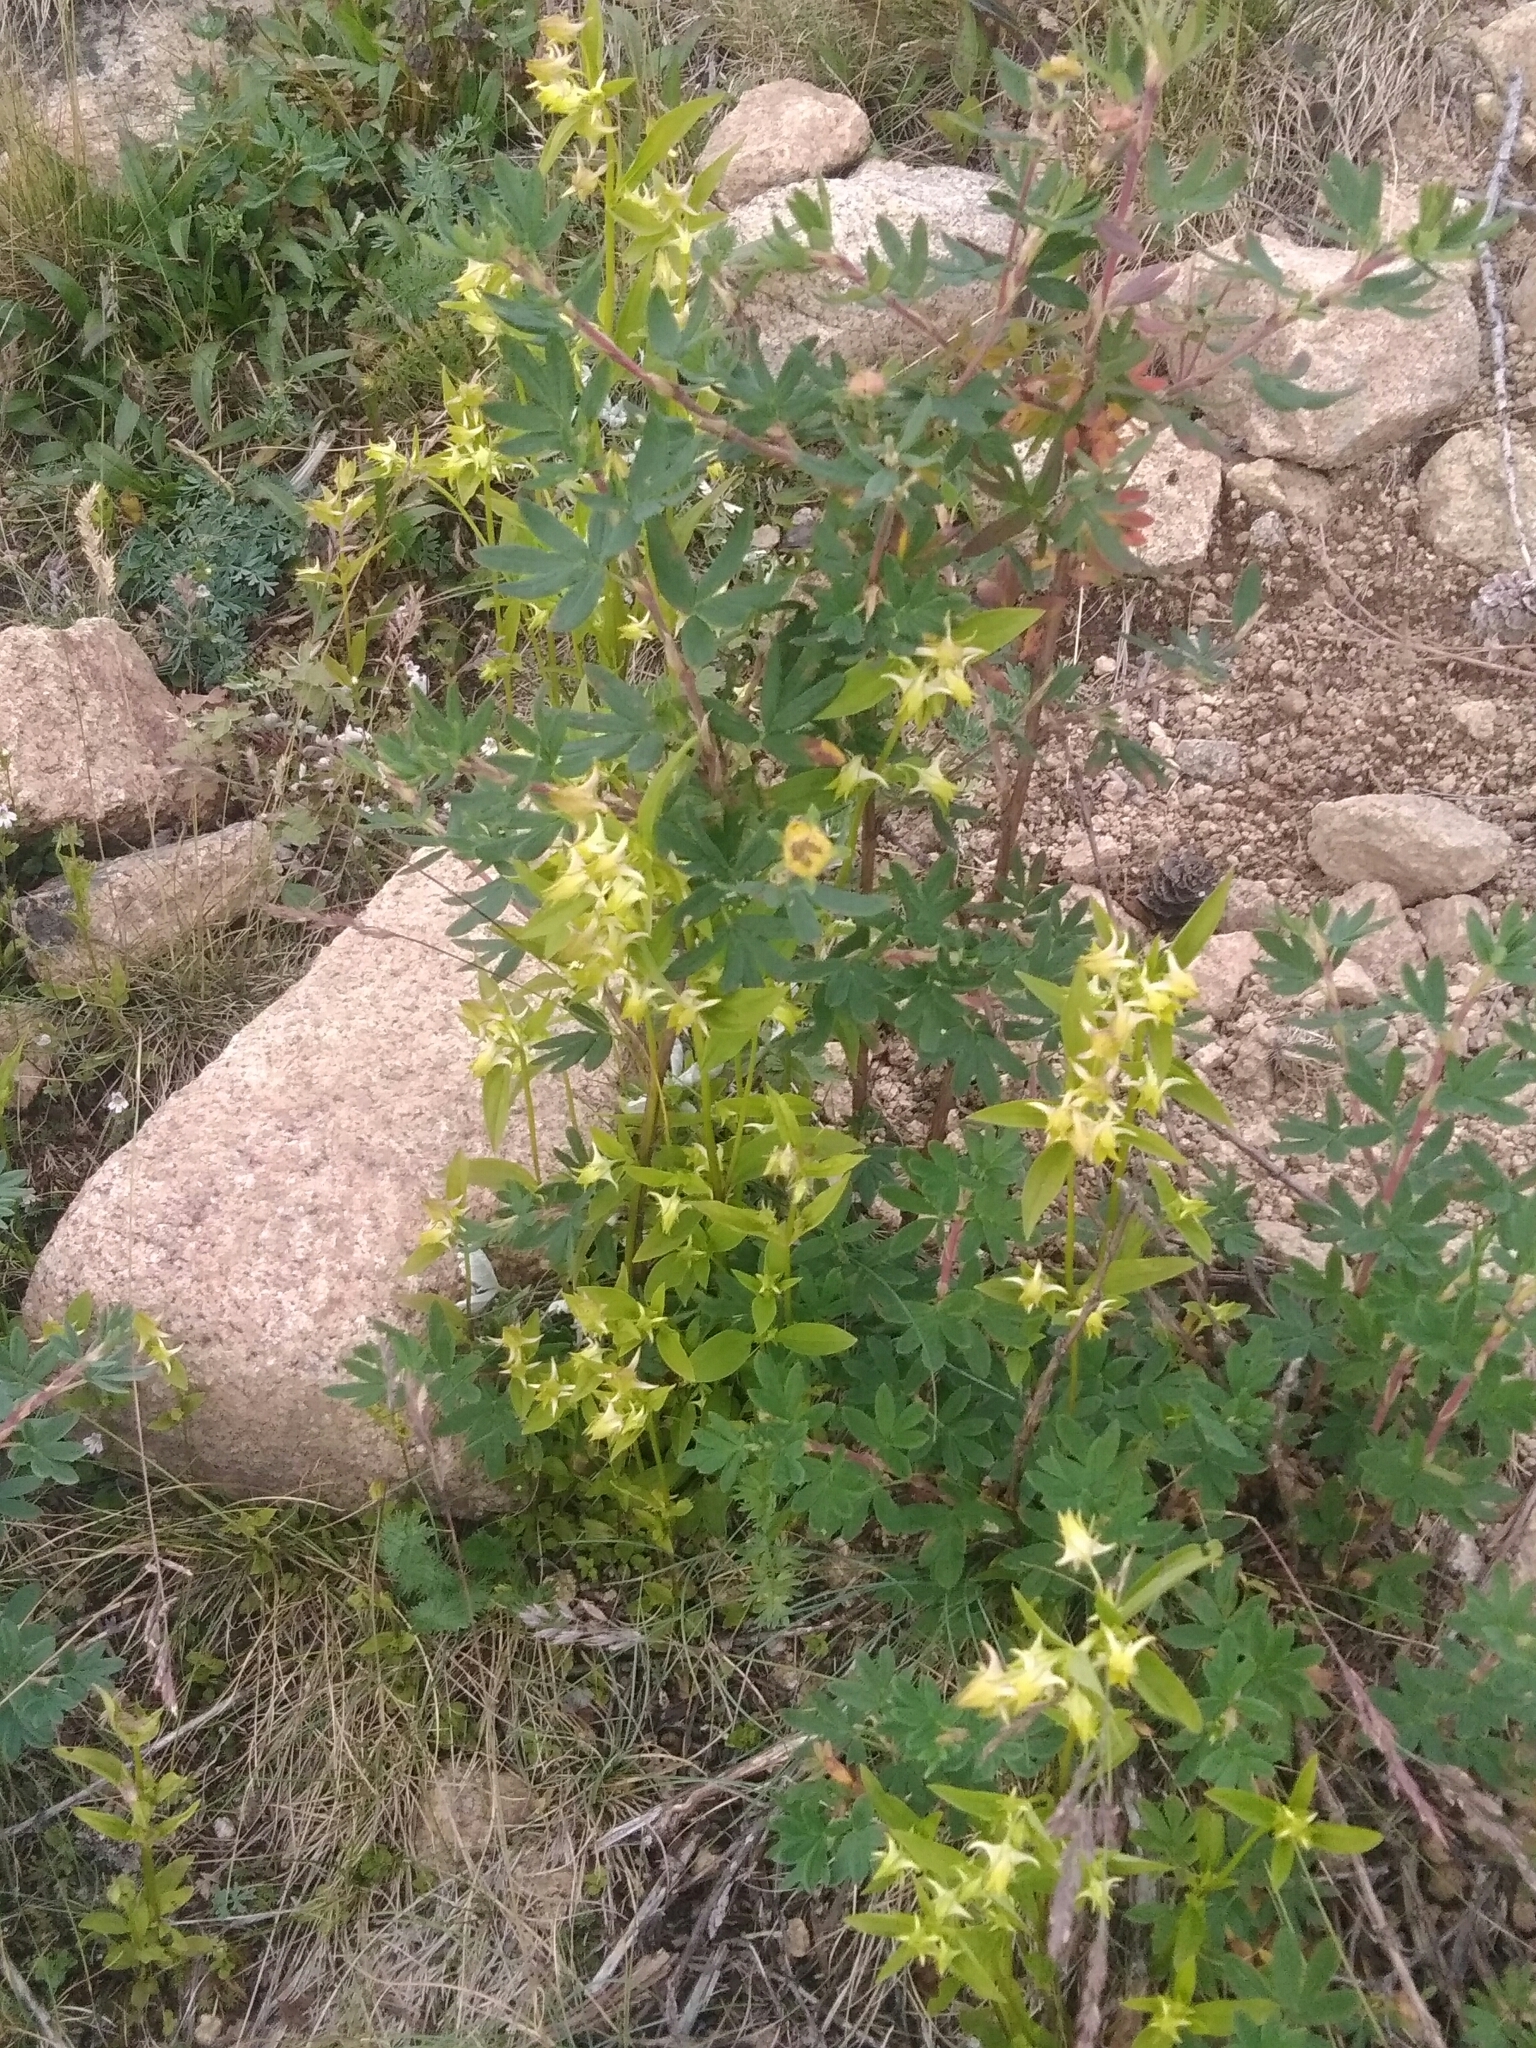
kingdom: Plantae
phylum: Tracheophyta
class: Magnoliopsida
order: Gentianales
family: Gentianaceae
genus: Halenia
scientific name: Halenia corniculata
